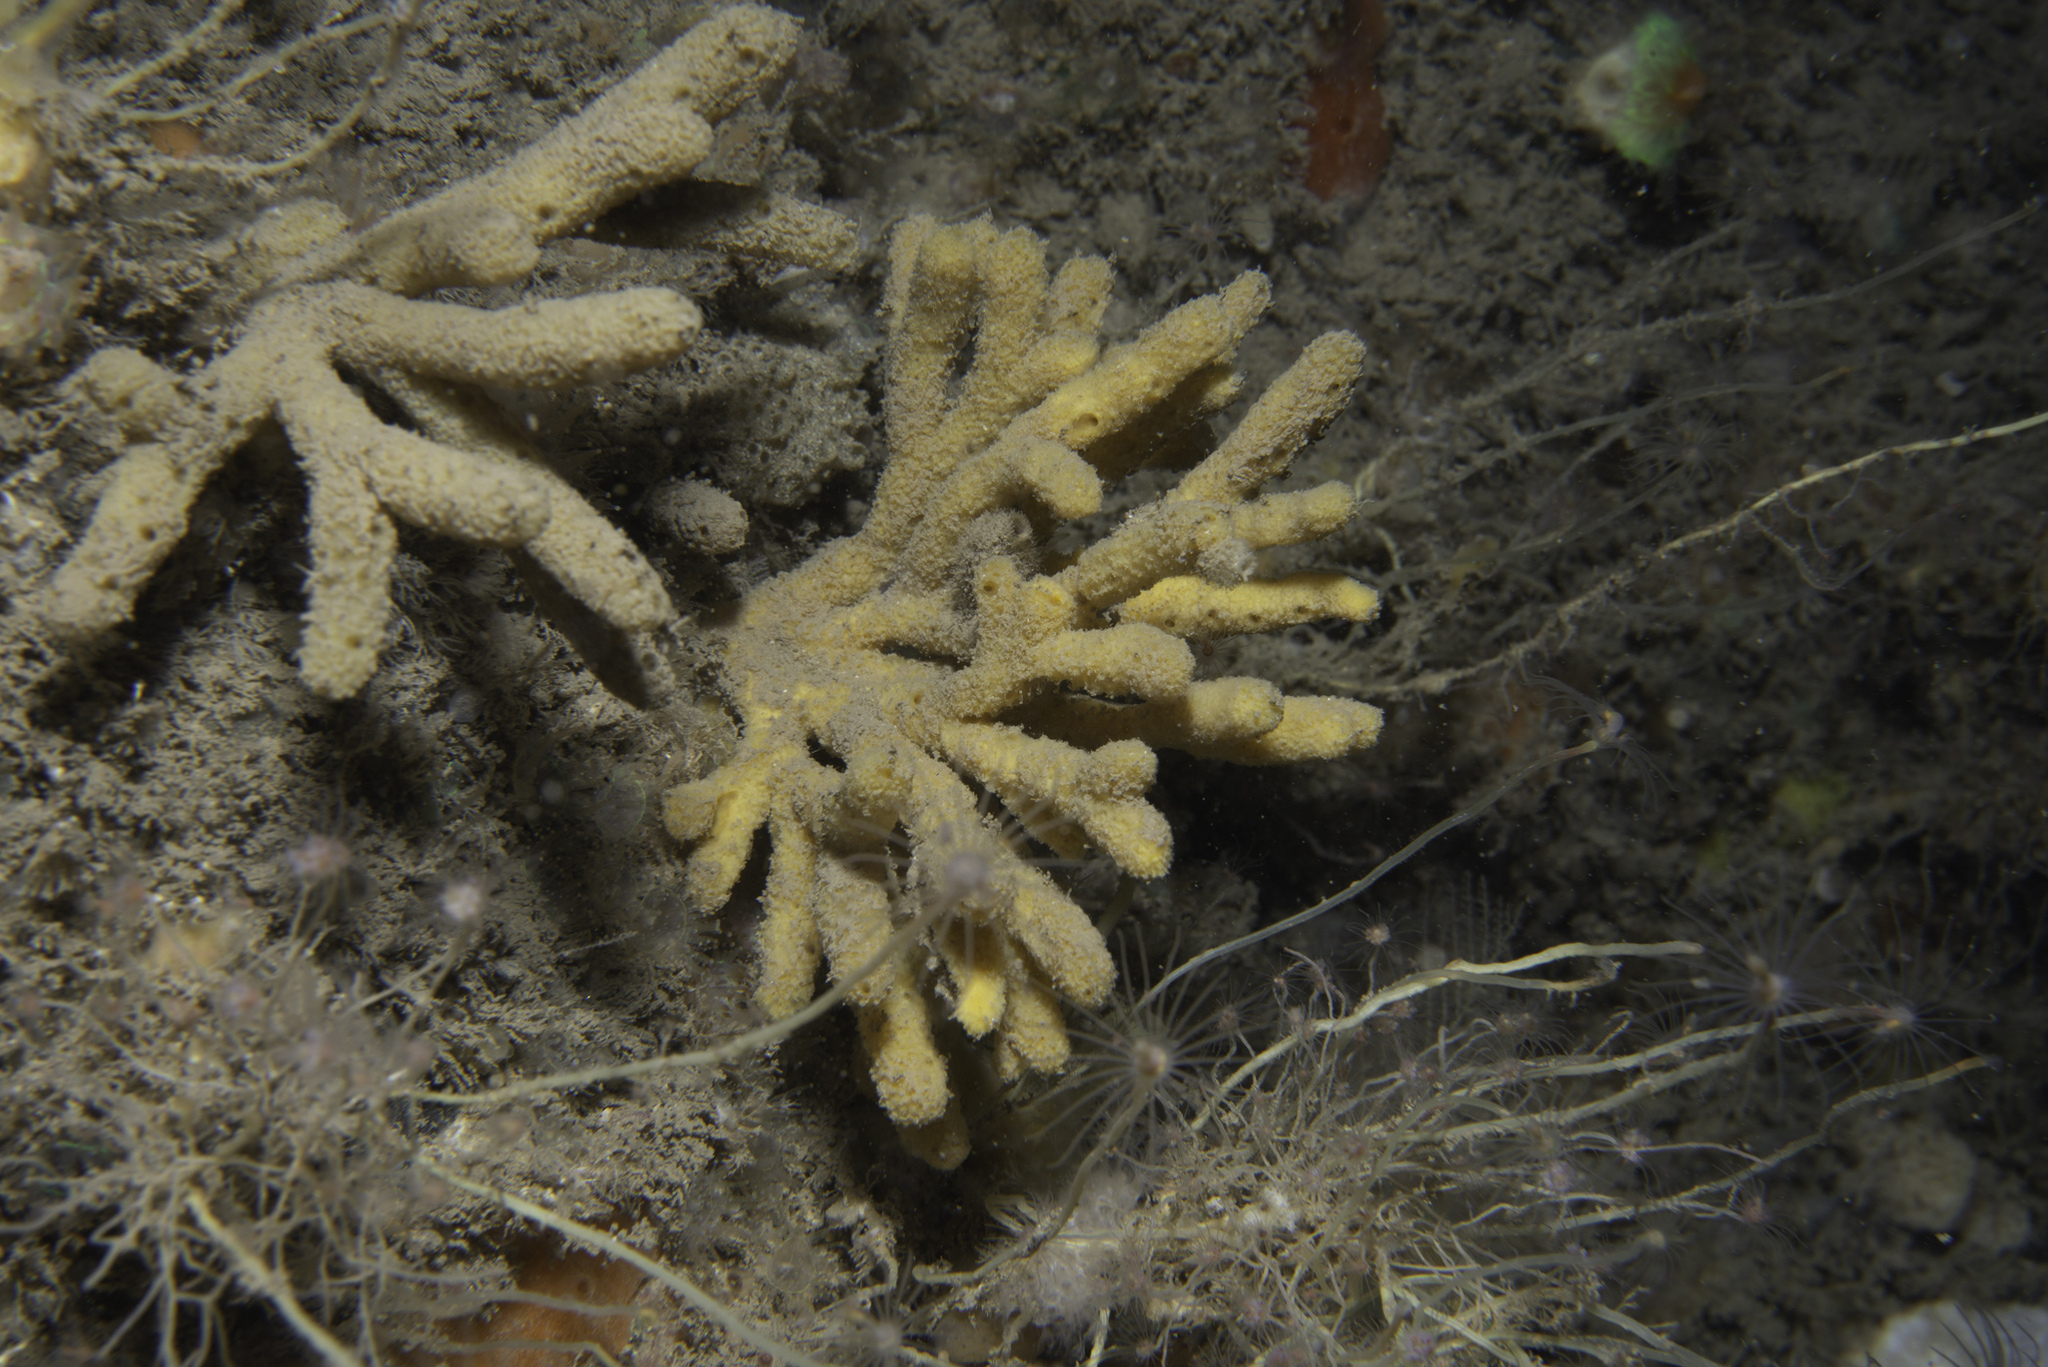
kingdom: Animalia
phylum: Porifera
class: Demospongiae
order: Axinellida
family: Stelligeridae
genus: Stelligera
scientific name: Stelligera stuposa
